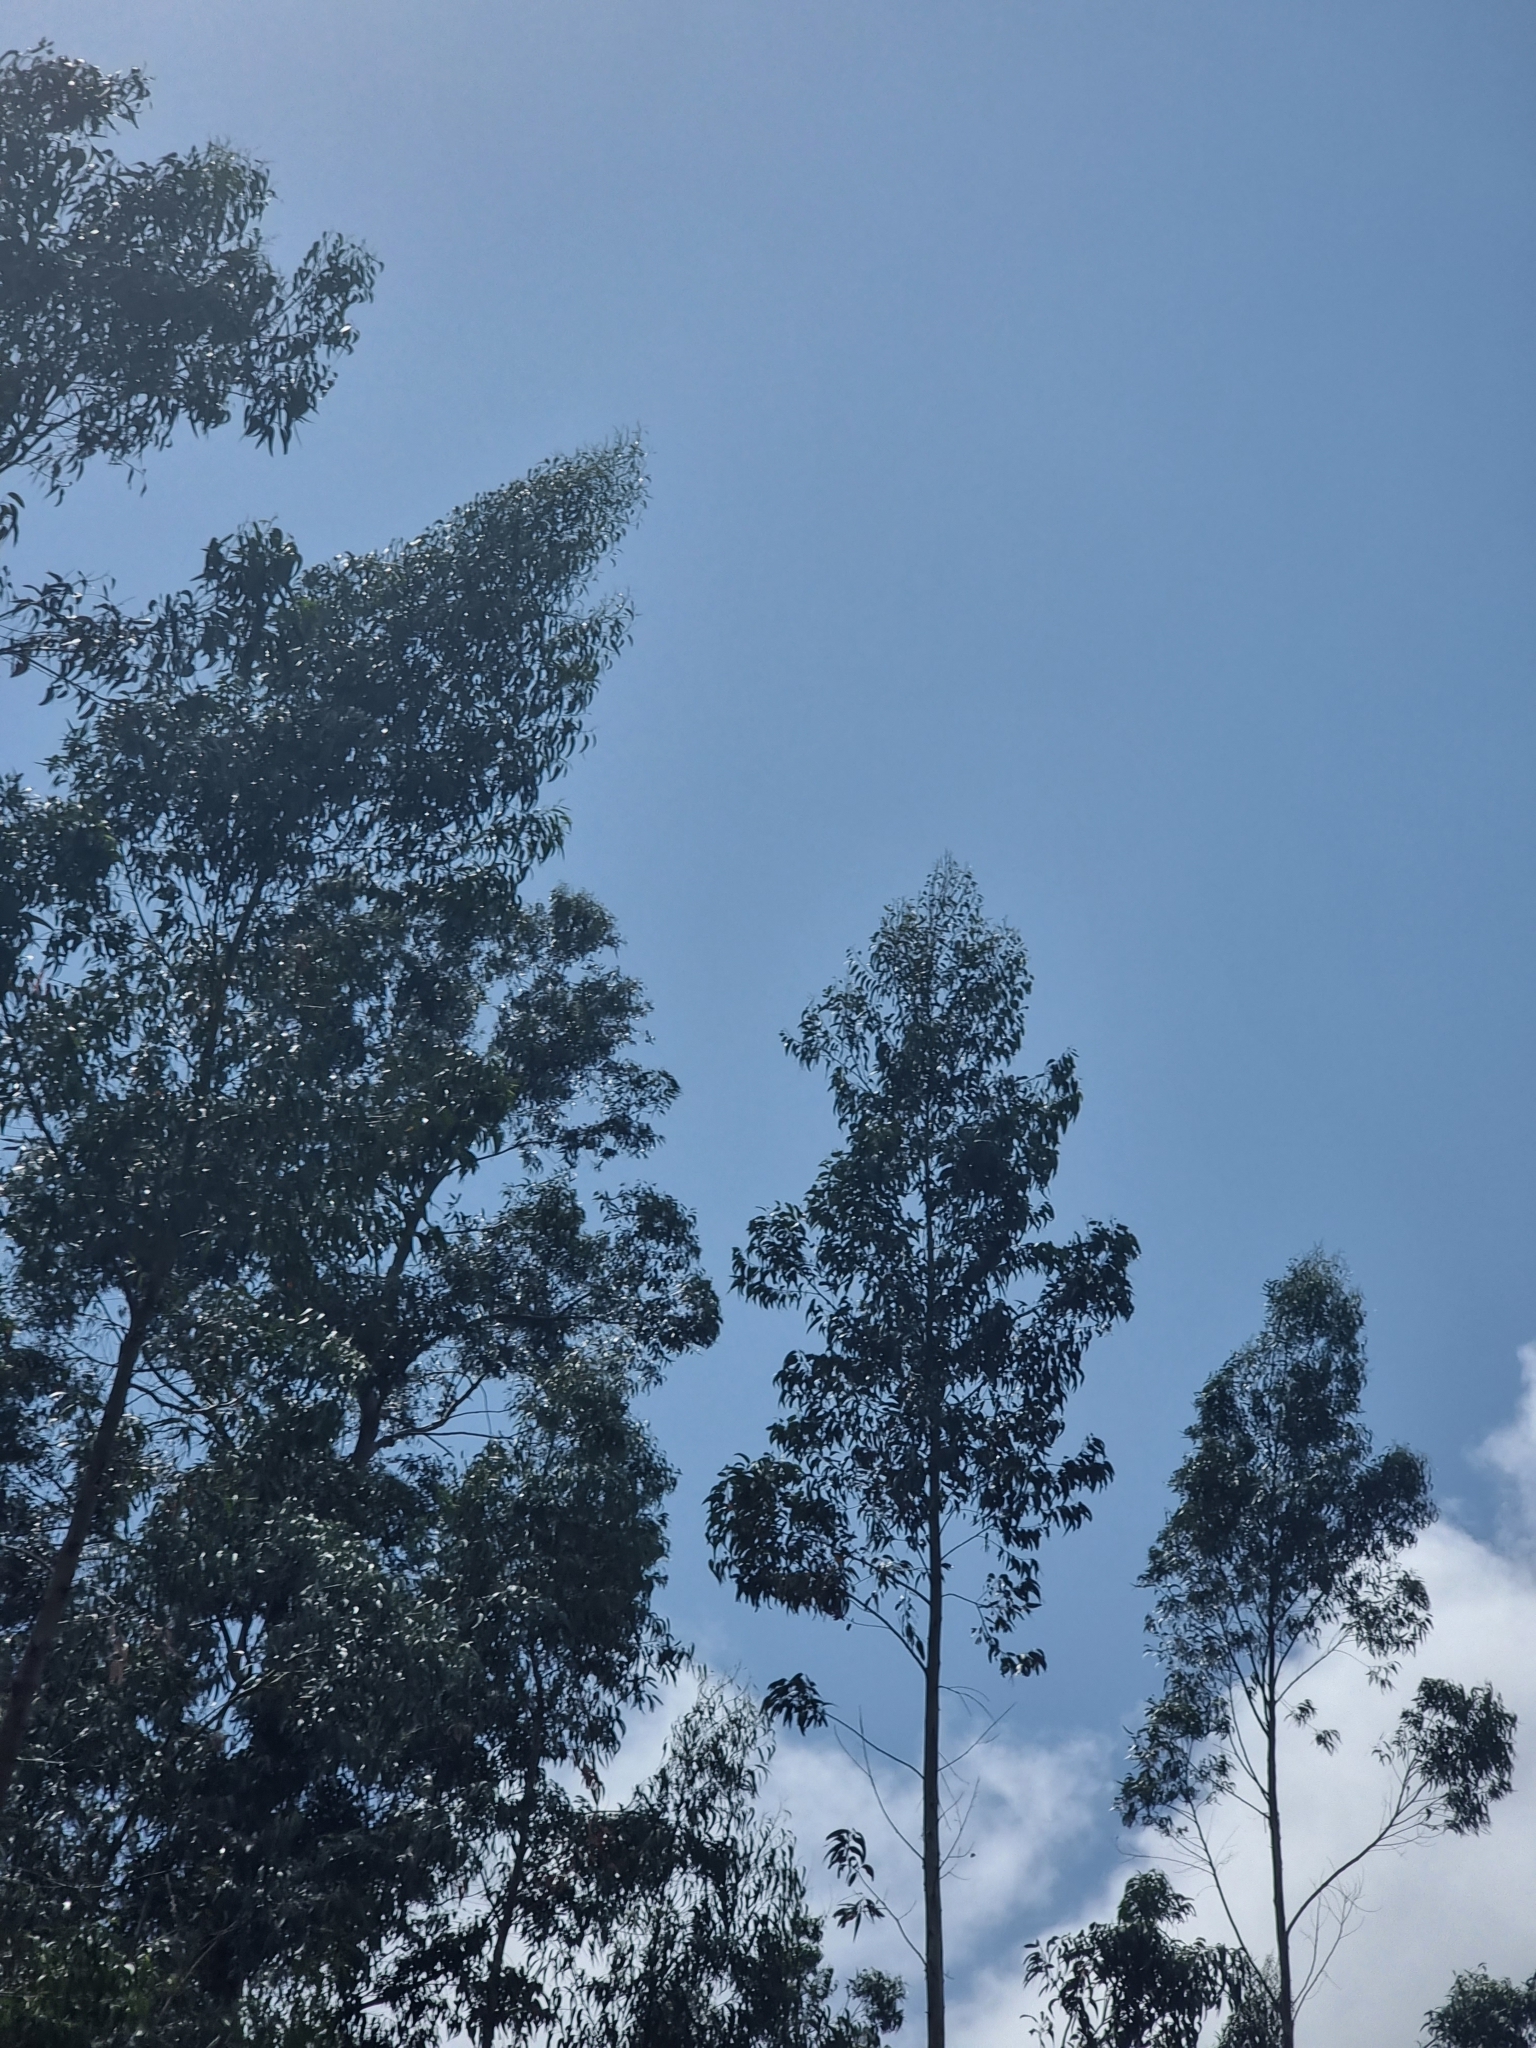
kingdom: Plantae
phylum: Tracheophyta
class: Magnoliopsida
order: Myrtales
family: Myrtaceae
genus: Eucalyptus
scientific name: Eucalyptus globulus
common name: Southern blue-gum
